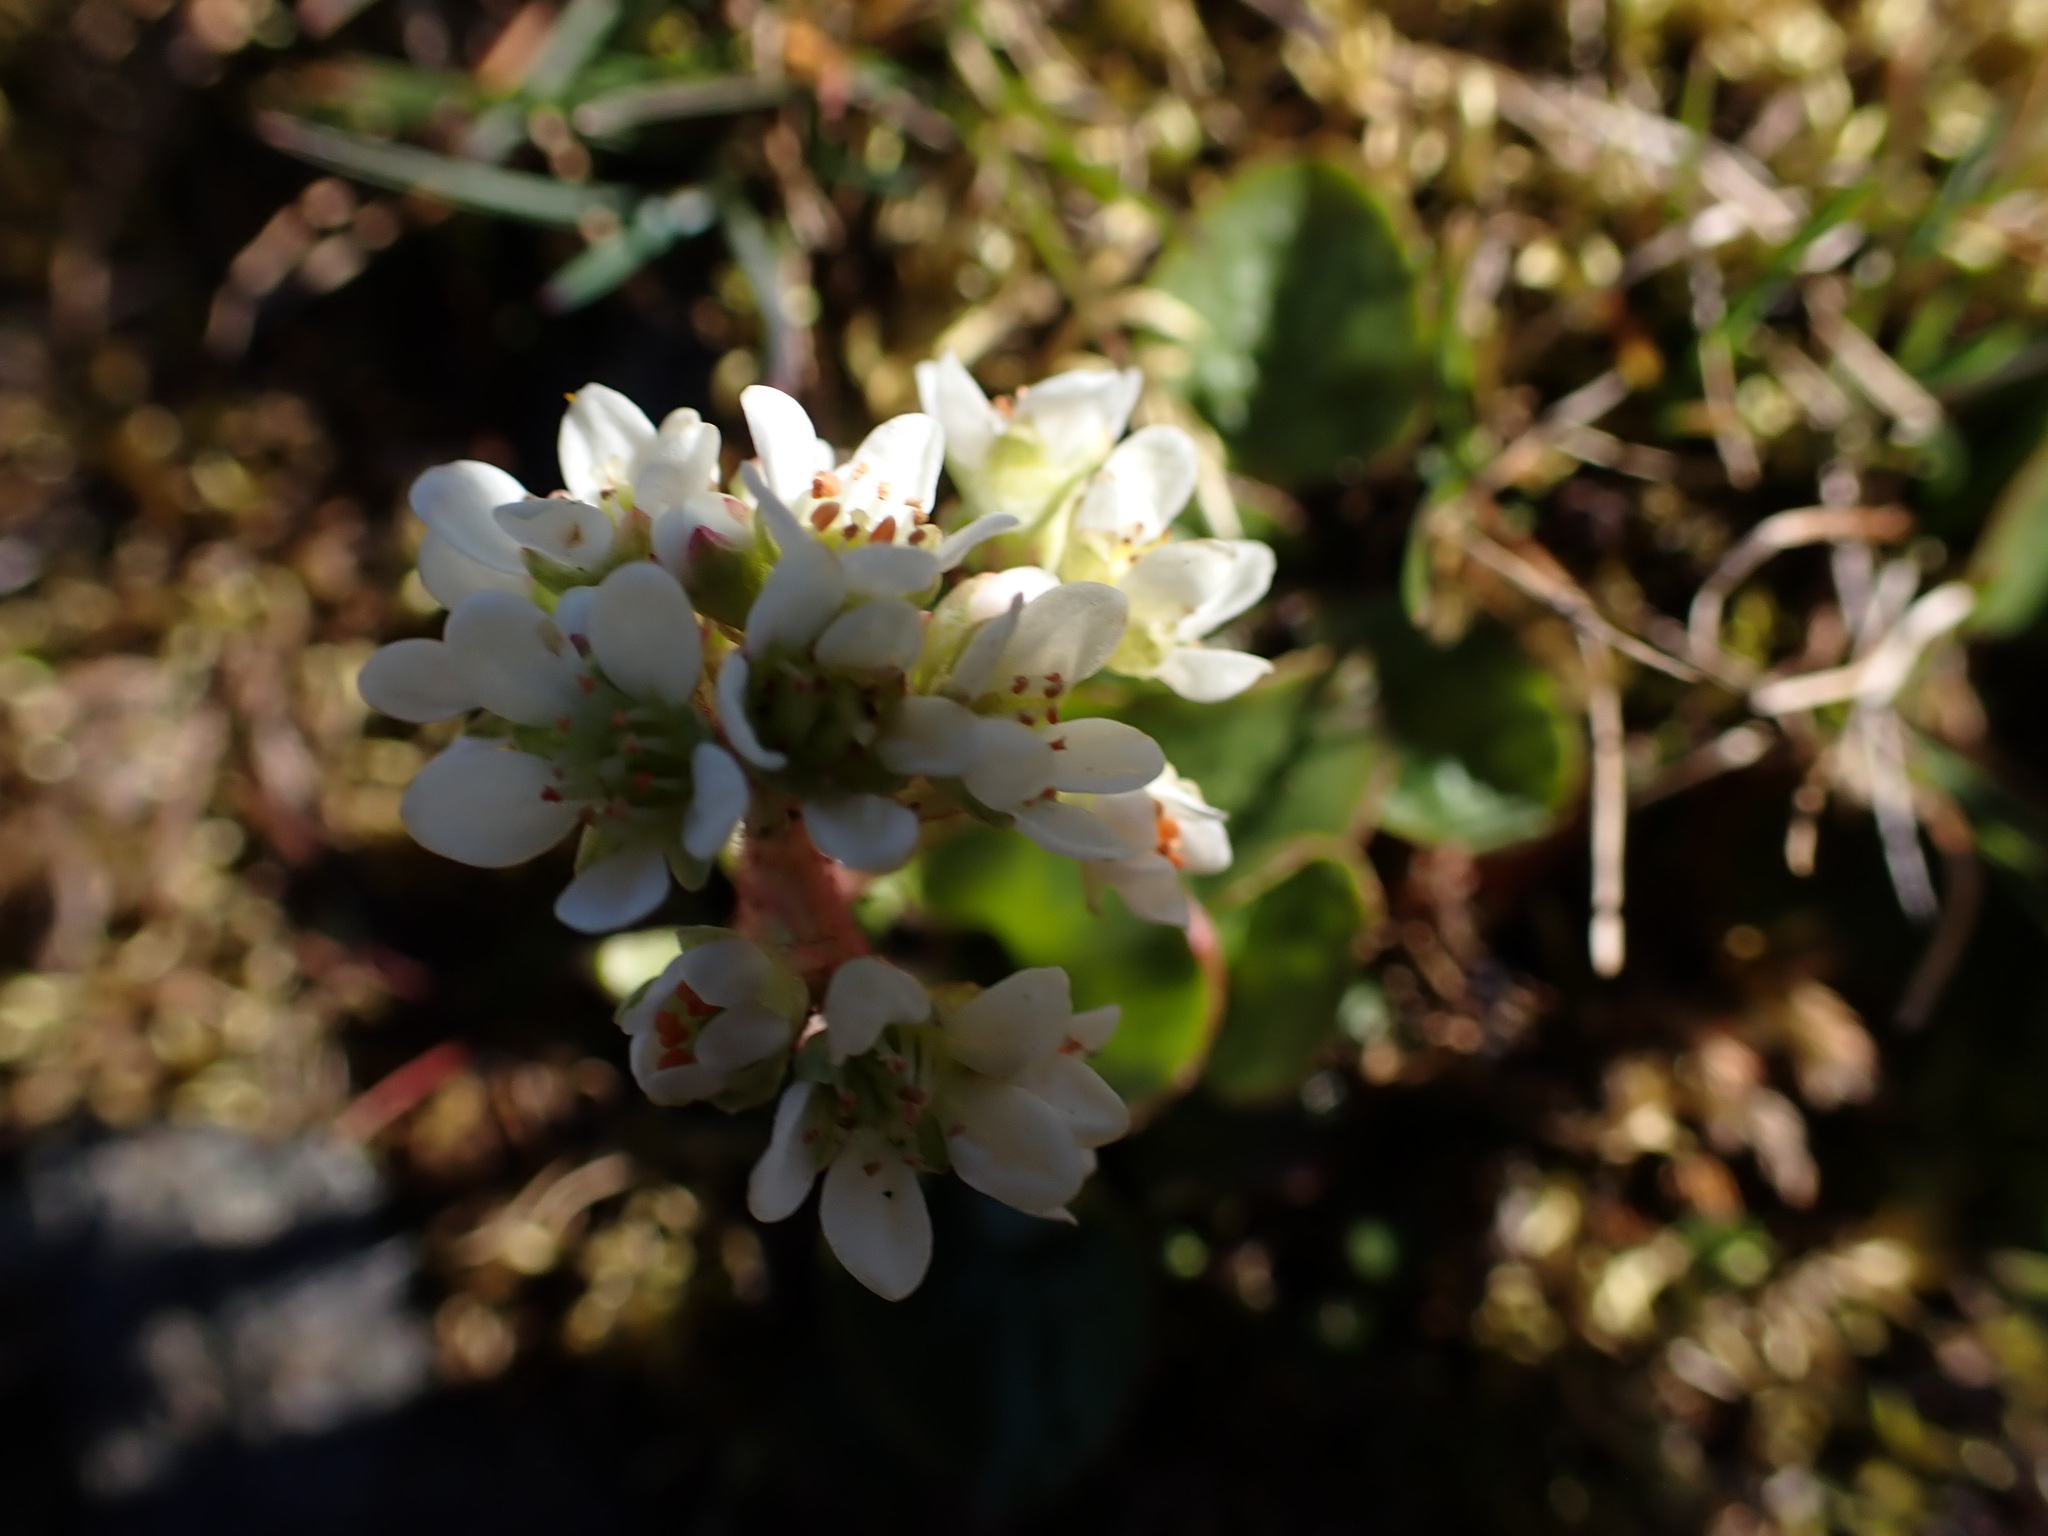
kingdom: Plantae
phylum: Tracheophyta
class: Magnoliopsida
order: Saxifragales
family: Saxifragaceae
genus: Micranthes
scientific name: Micranthes integrifolia
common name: Wholeleaf saxifrage
